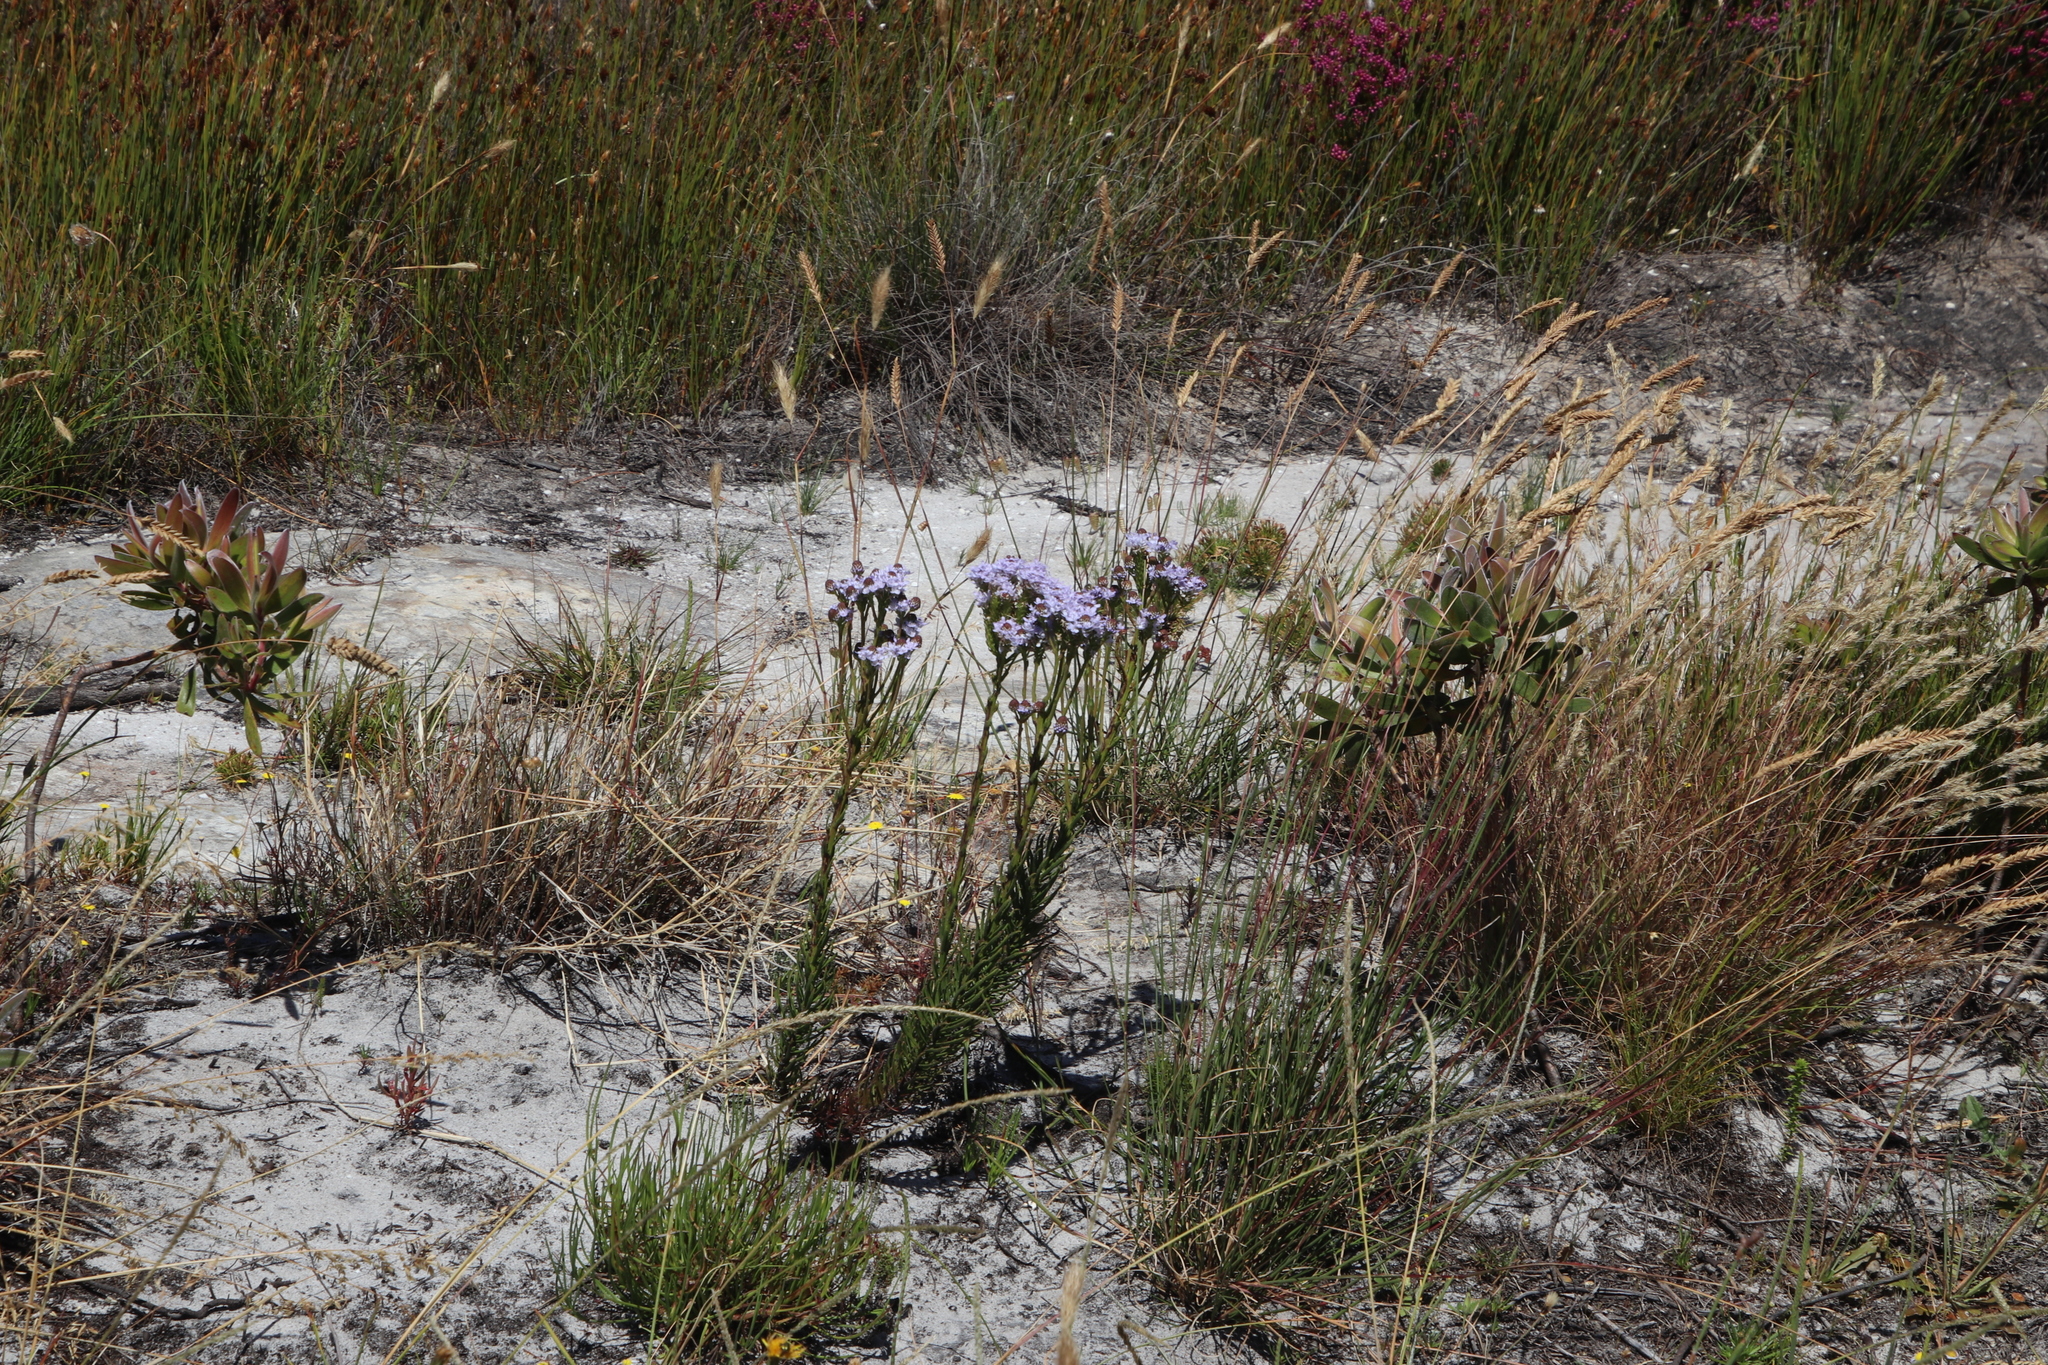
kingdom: Plantae
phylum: Tracheophyta
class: Magnoliopsida
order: Lamiales
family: Scrophulariaceae
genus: Pseudoselago
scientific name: Pseudoselago spuria
